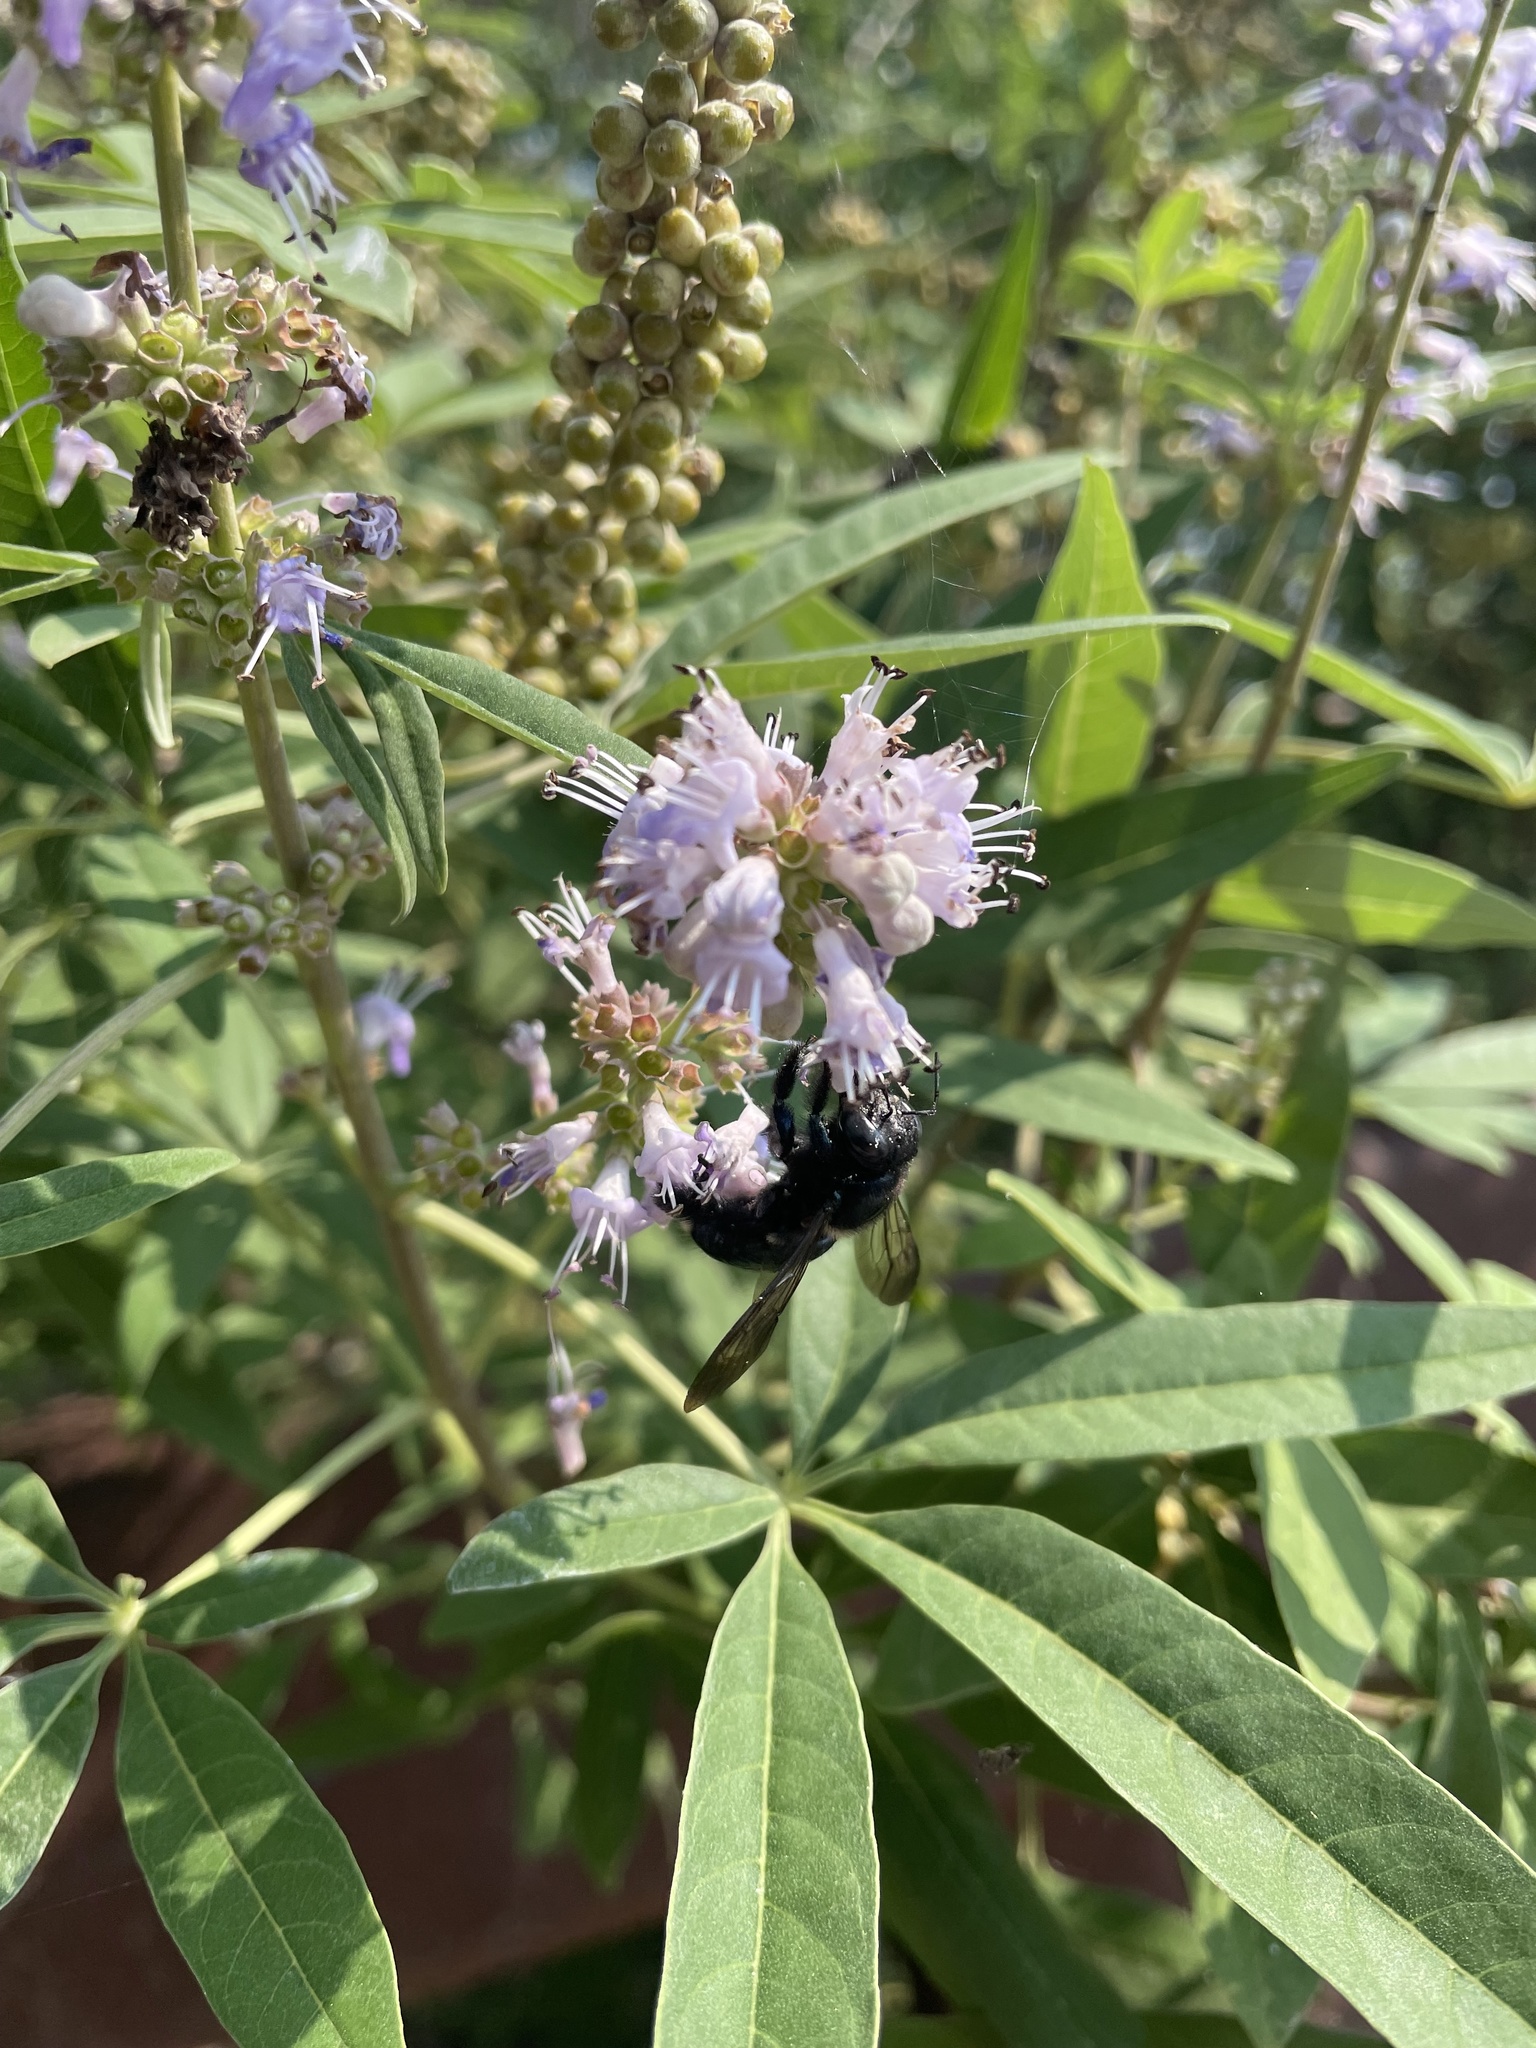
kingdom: Plantae
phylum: Tracheophyta
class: Magnoliopsida
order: Lamiales
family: Lamiaceae
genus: Vitex
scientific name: Vitex agnus-castus
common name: Chasteberry
